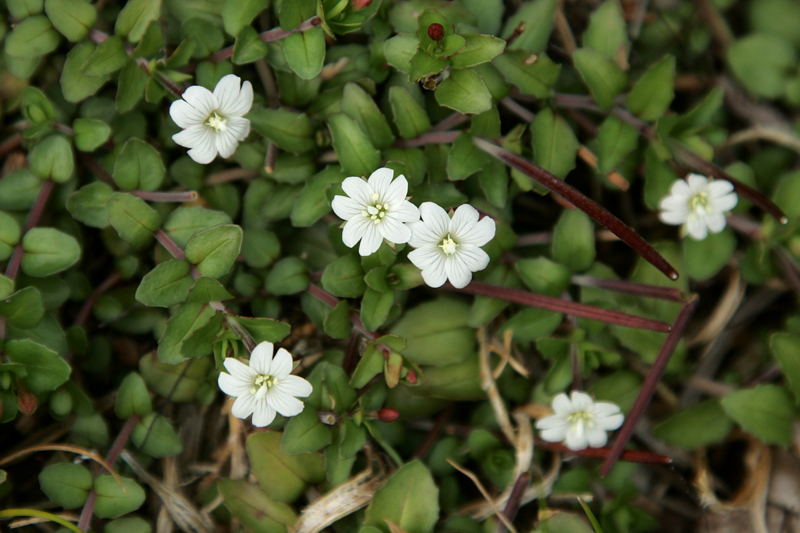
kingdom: Plantae
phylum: Tracheophyta
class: Magnoliopsida
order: Myrtales
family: Onagraceae
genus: Epilobium
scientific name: Epilobium alsinoides
